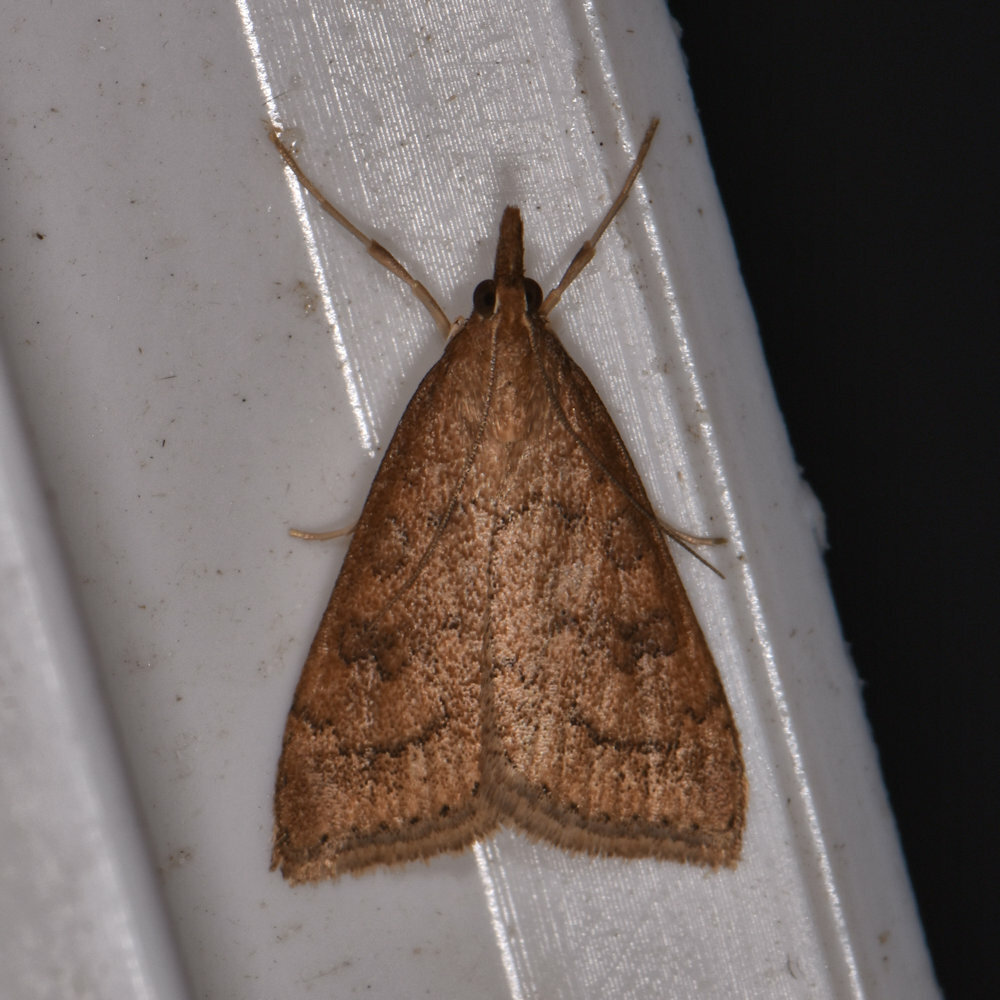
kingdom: Animalia
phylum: Arthropoda
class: Insecta
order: Lepidoptera
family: Crambidae
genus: Udea
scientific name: Udea rubigalis
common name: Celery leaftier moth
